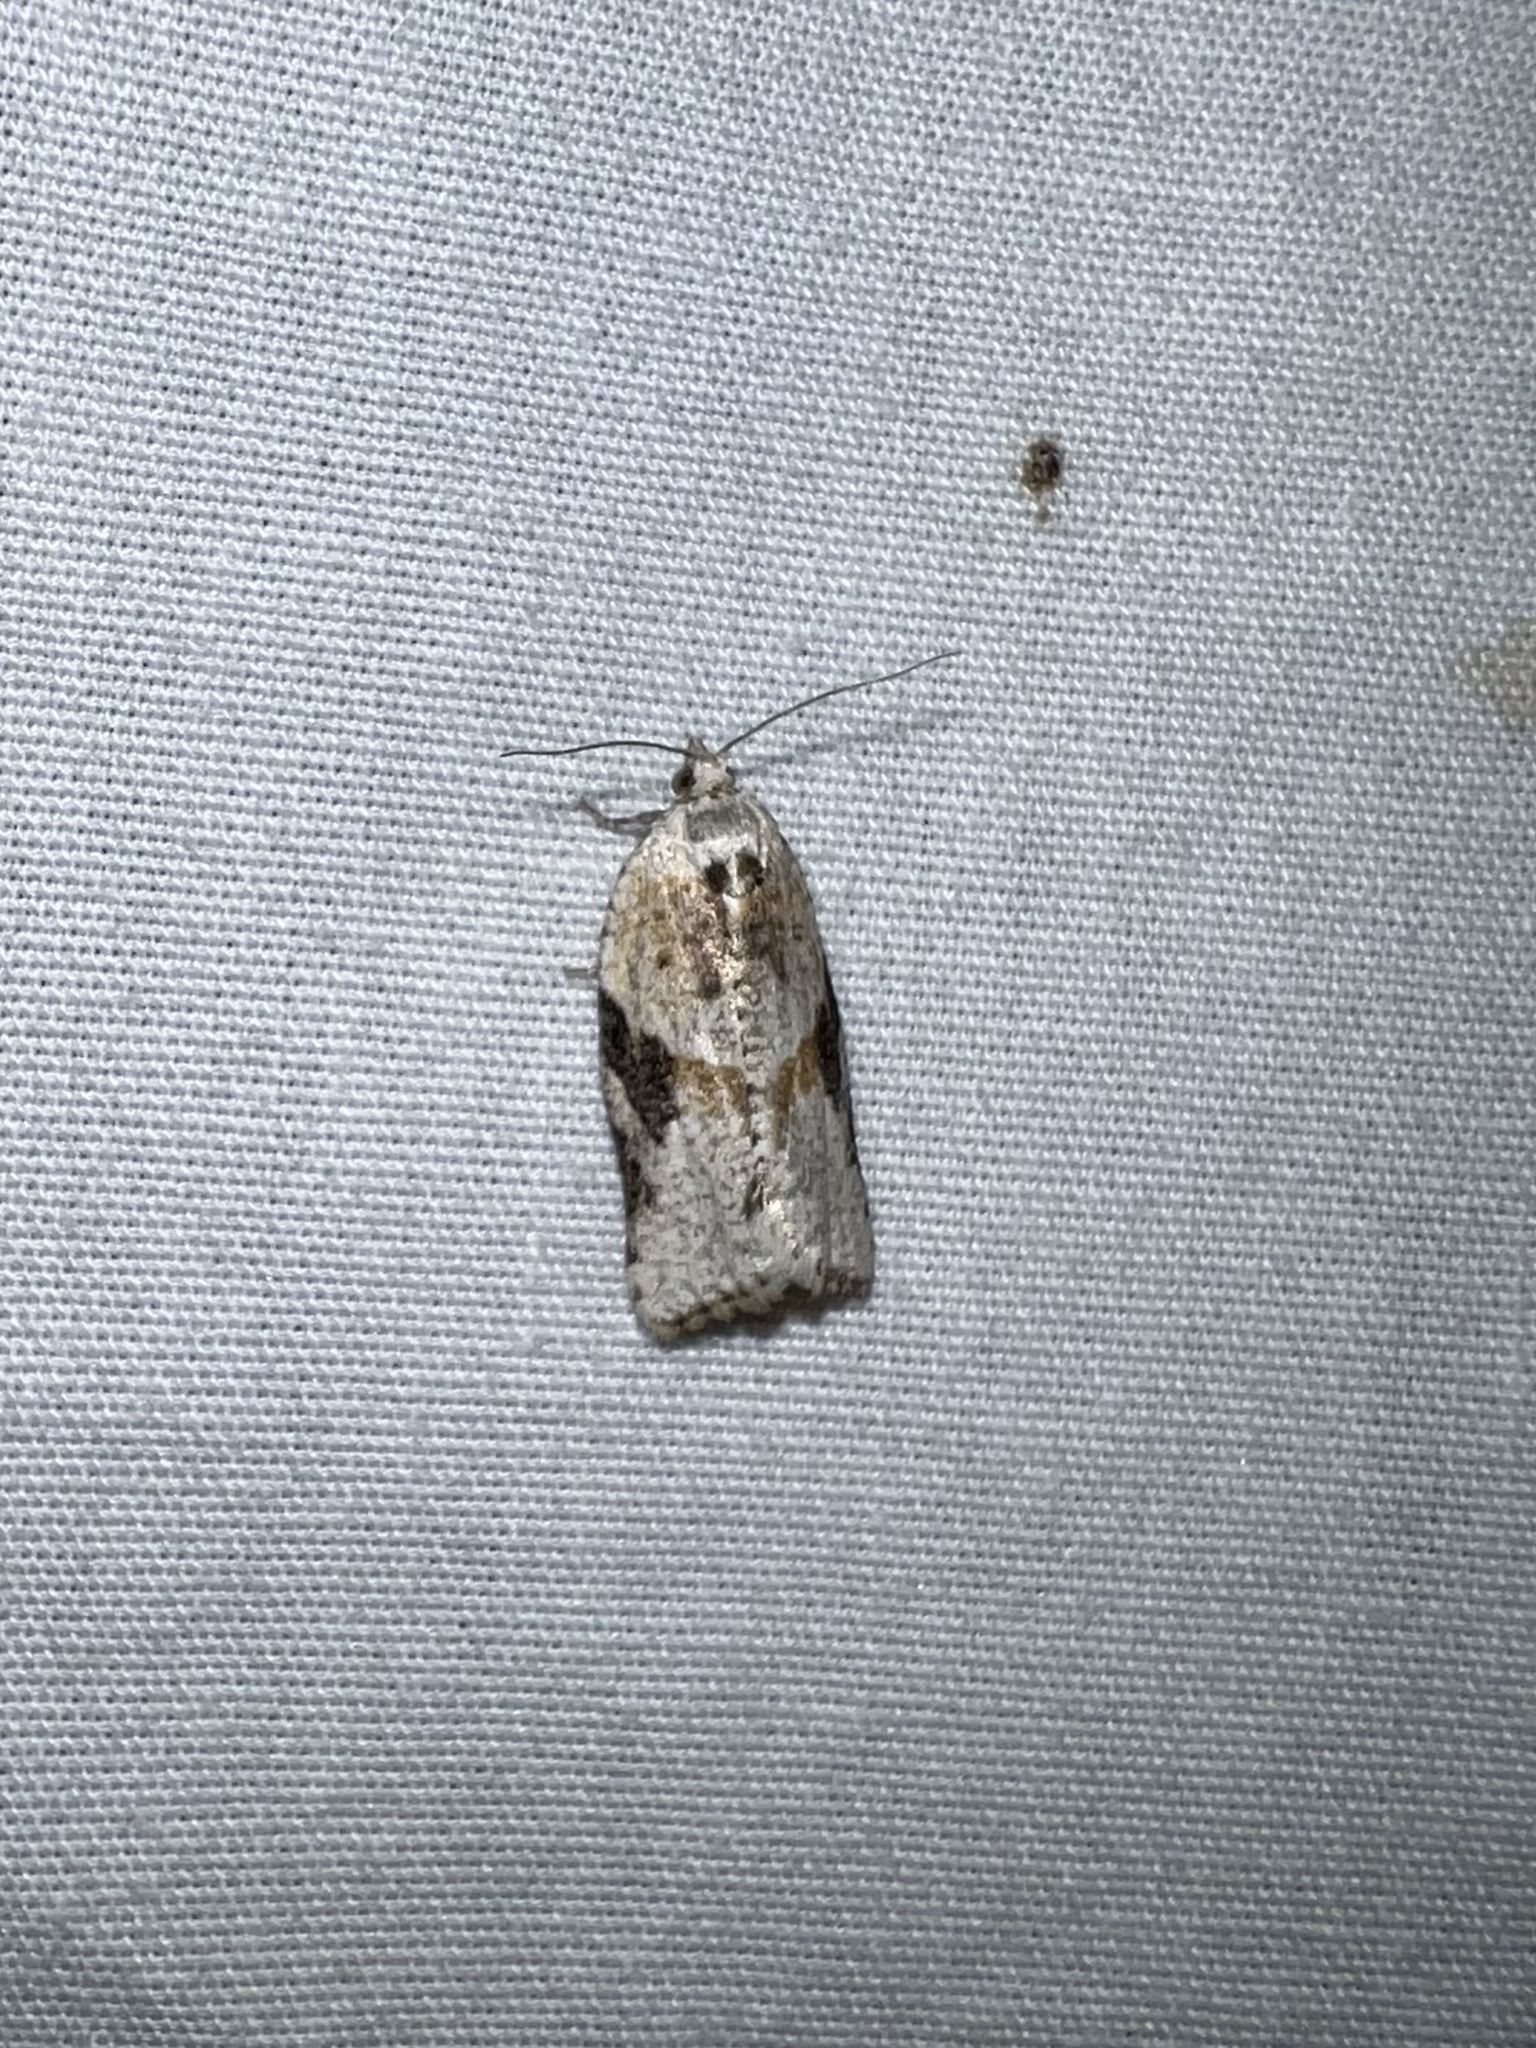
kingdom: Animalia
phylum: Arthropoda
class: Insecta
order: Lepidoptera
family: Tortricidae
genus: Argyrotaenia
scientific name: Argyrotaenia mariana
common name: Gray-banded leafroller moth
